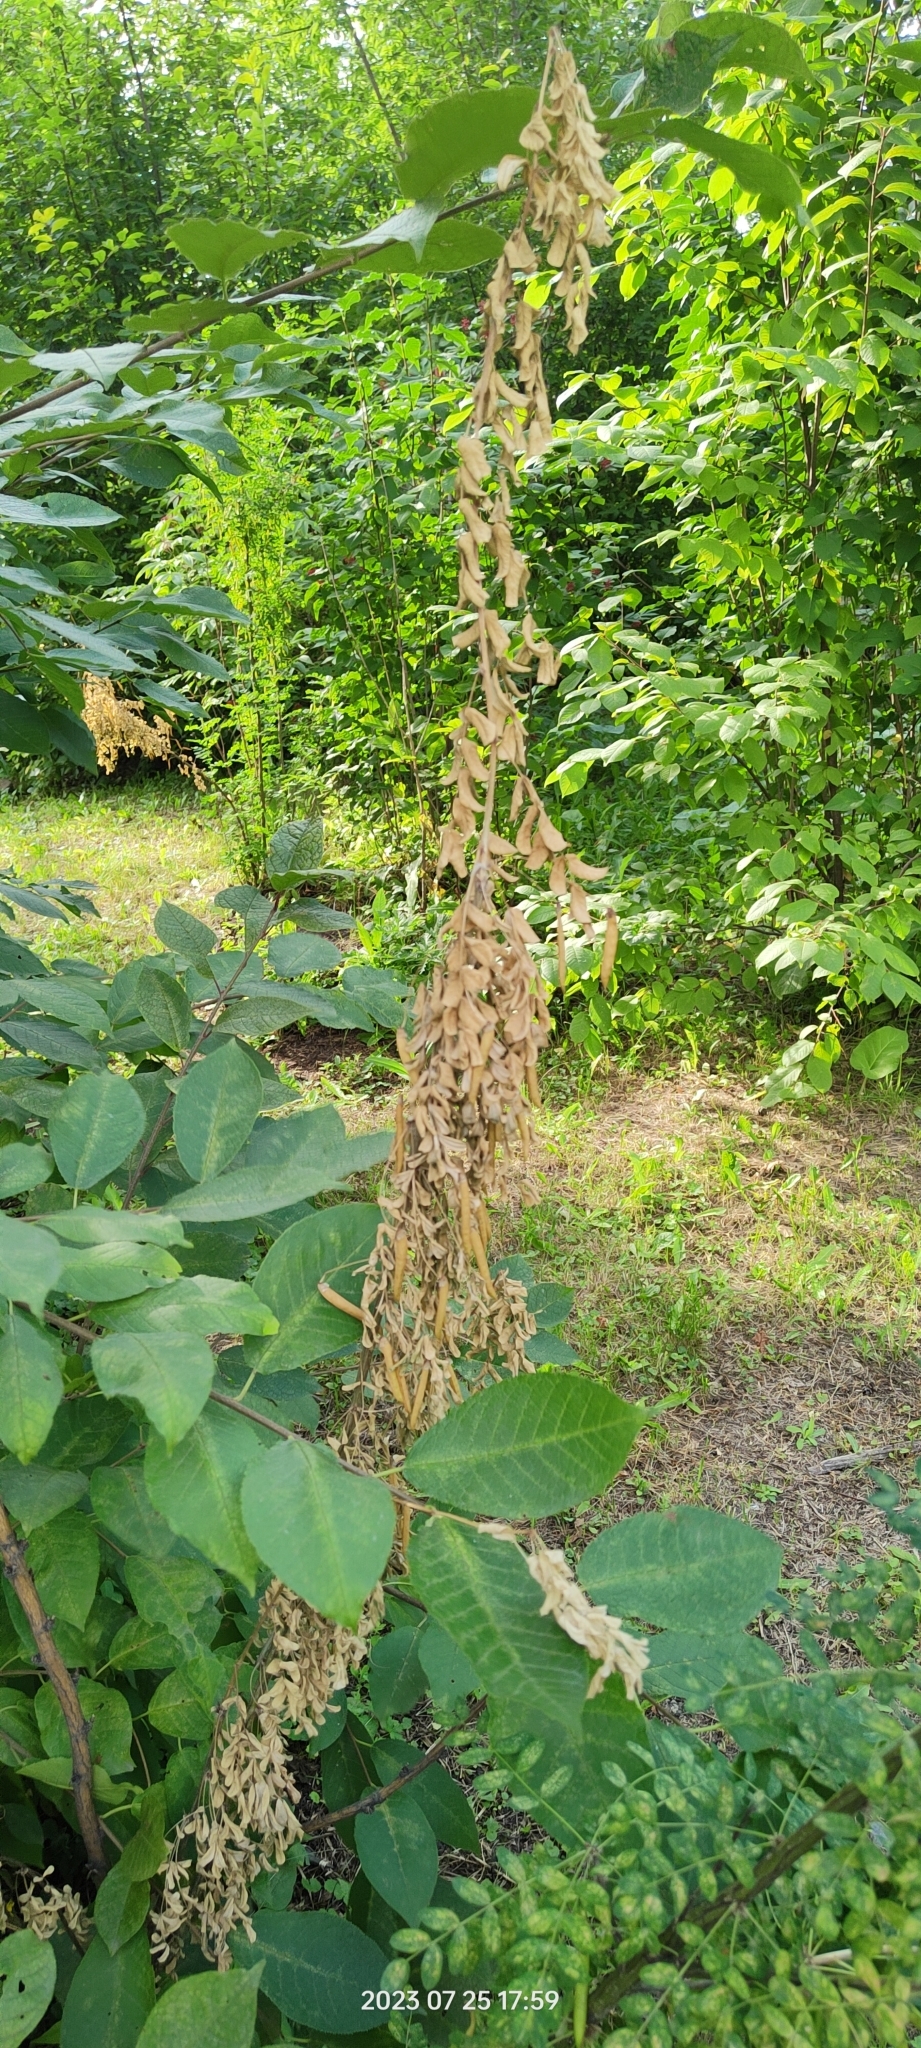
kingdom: Plantae
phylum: Tracheophyta
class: Magnoliopsida
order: Fabales
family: Fabaceae
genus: Caragana
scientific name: Caragana arborescens
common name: Siberian peashrub
